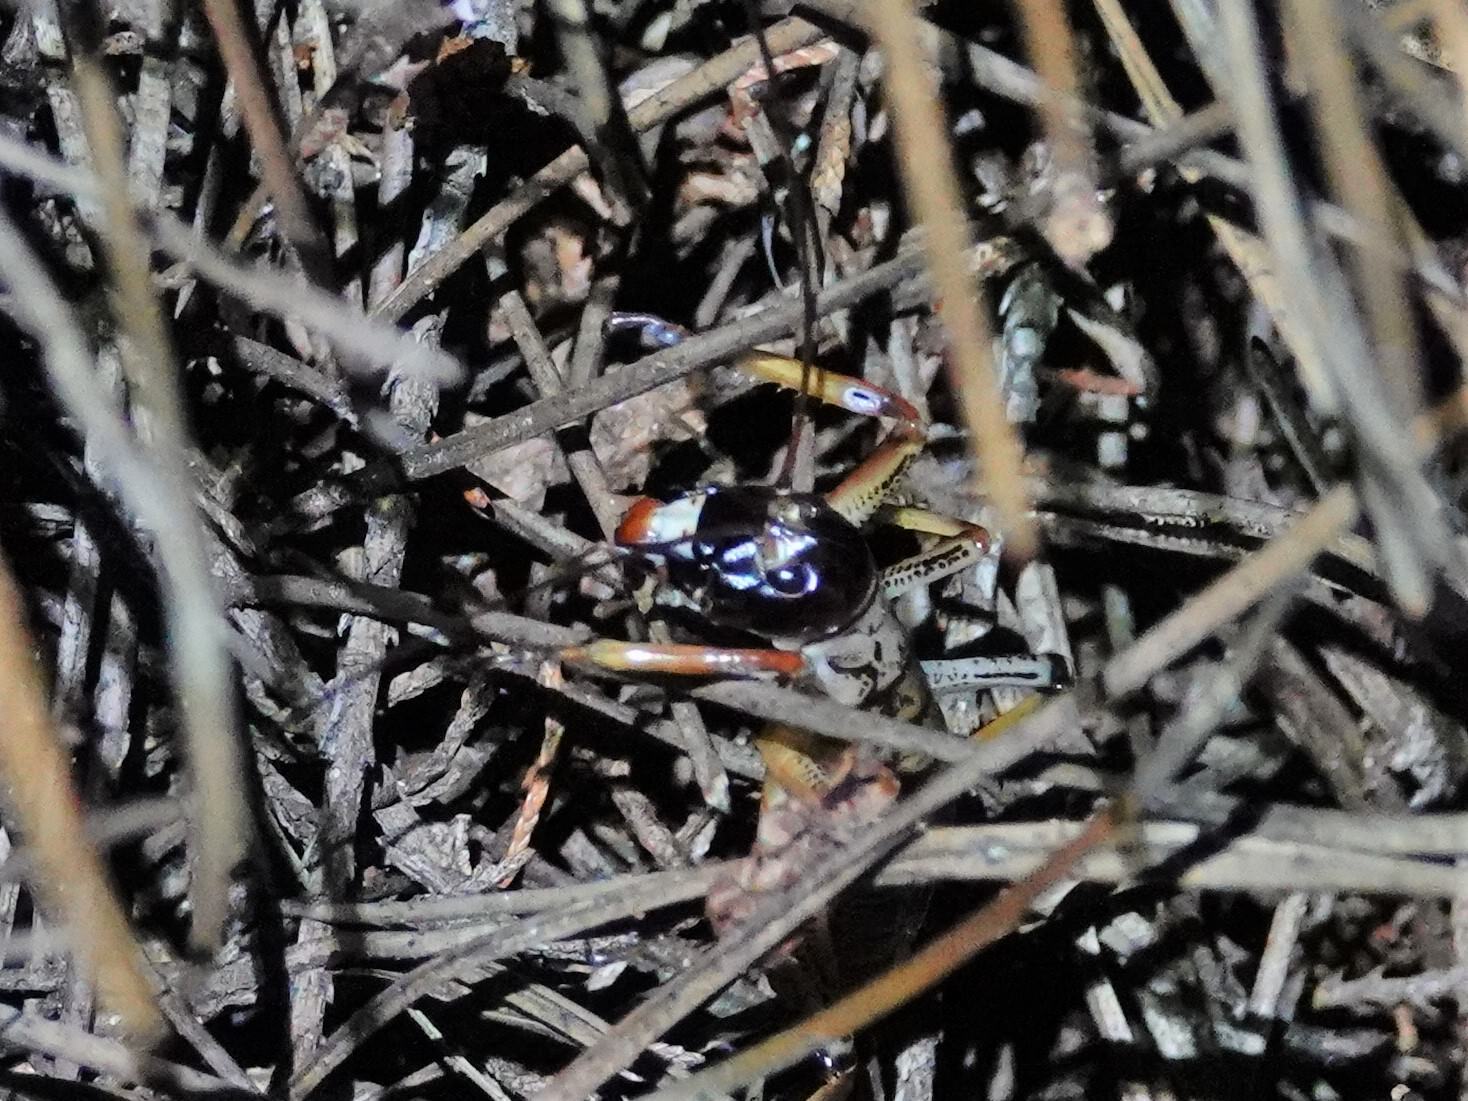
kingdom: Animalia
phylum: Arthropoda
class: Insecta
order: Orthoptera
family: Anostostomatidae
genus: Hemideina
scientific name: Hemideina thoracica
